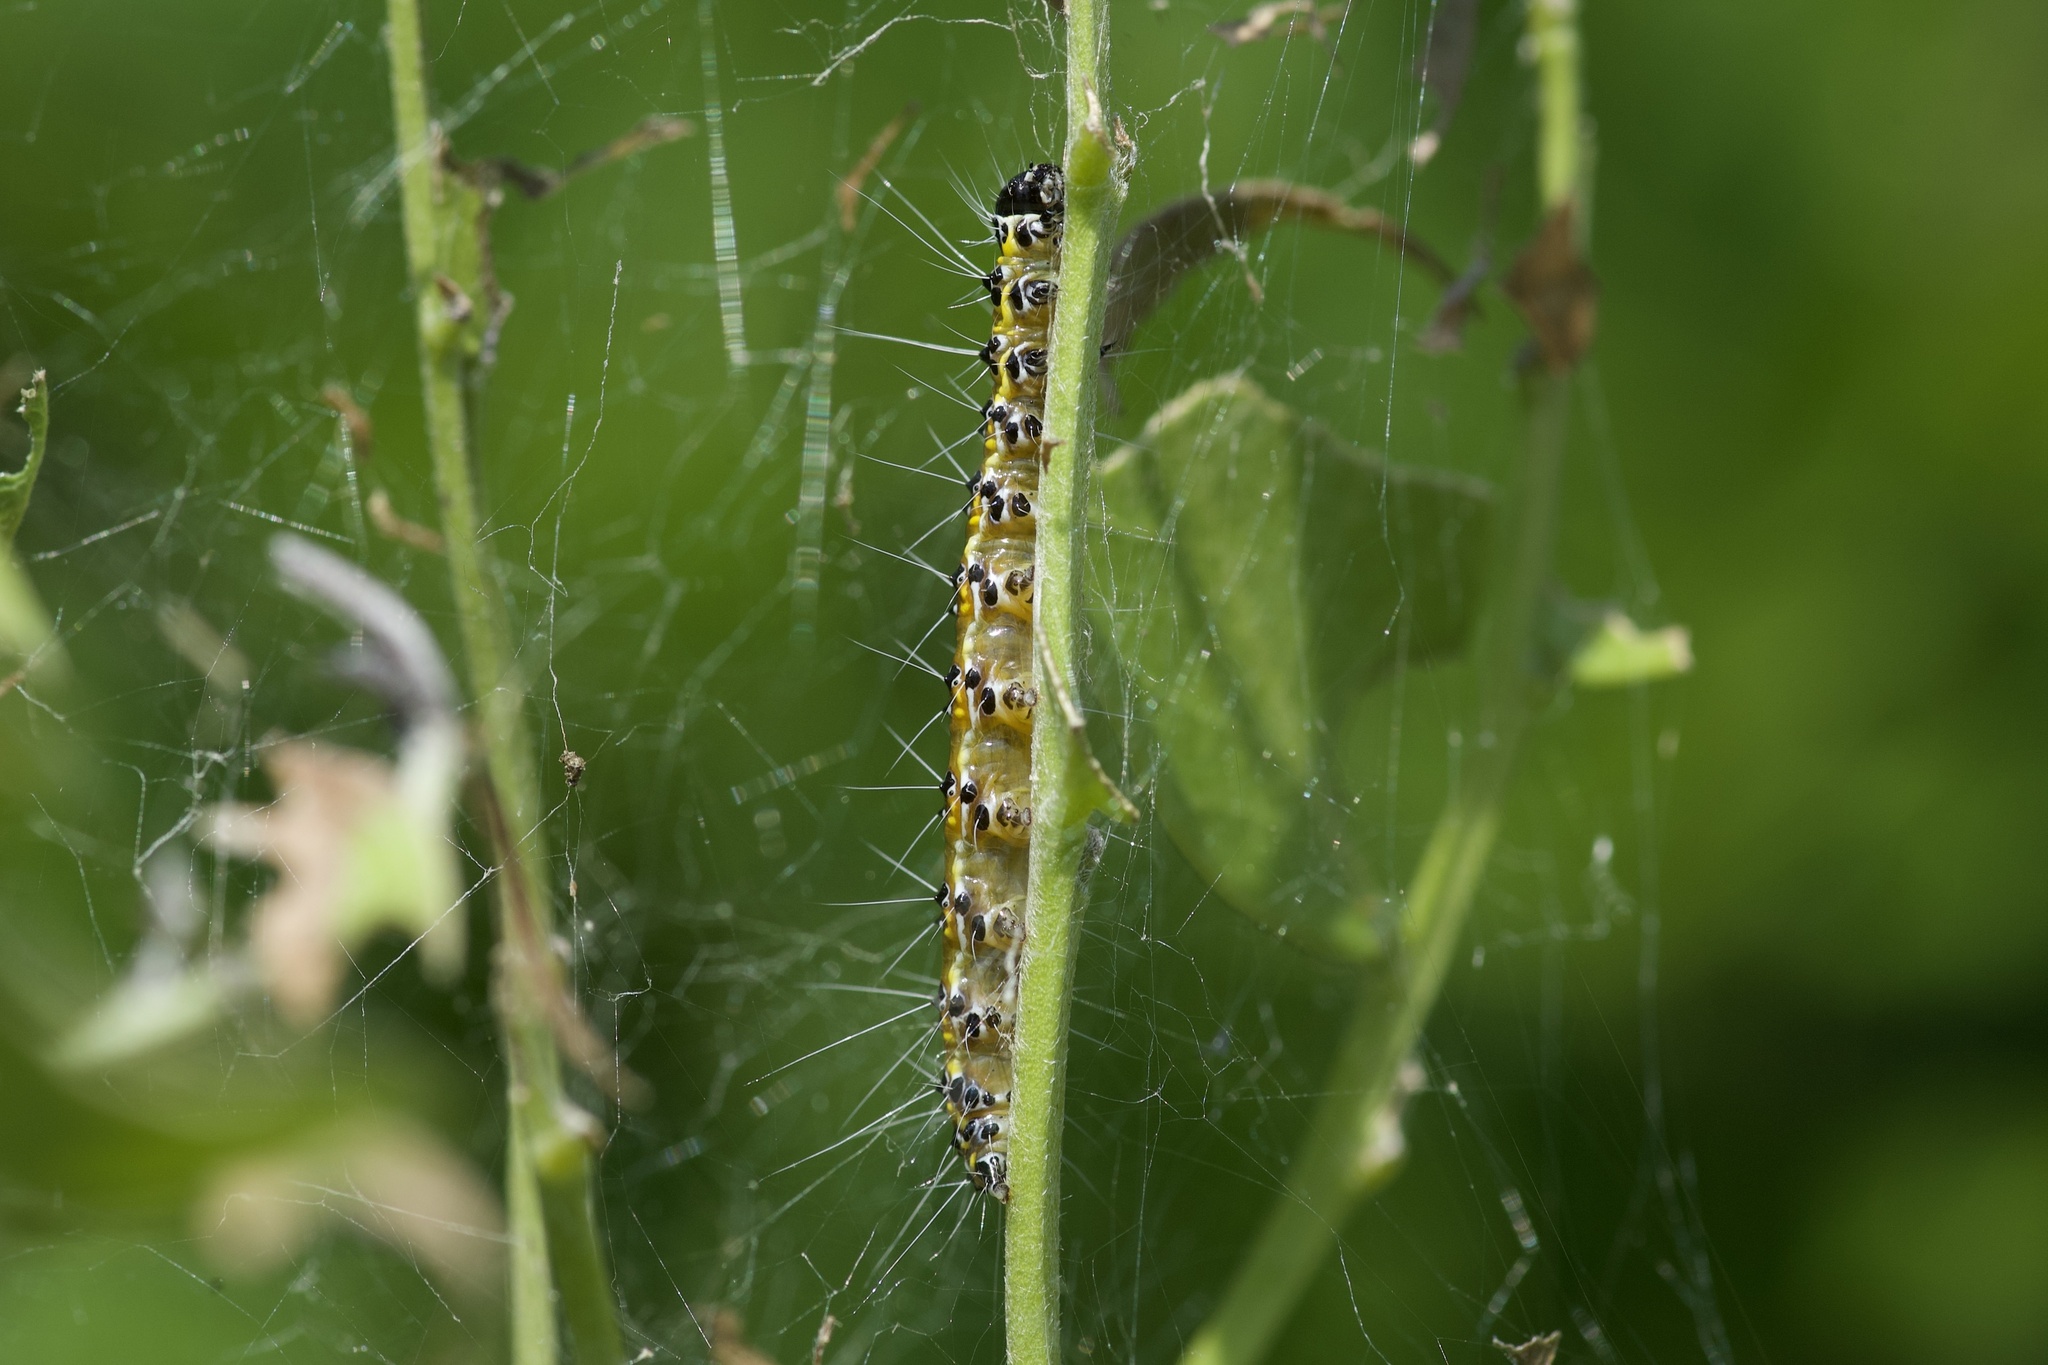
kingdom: Animalia
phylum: Arthropoda
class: Insecta
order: Lepidoptera
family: Crambidae
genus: Uresiphita
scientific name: Uresiphita reversalis
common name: Genista broom moth
